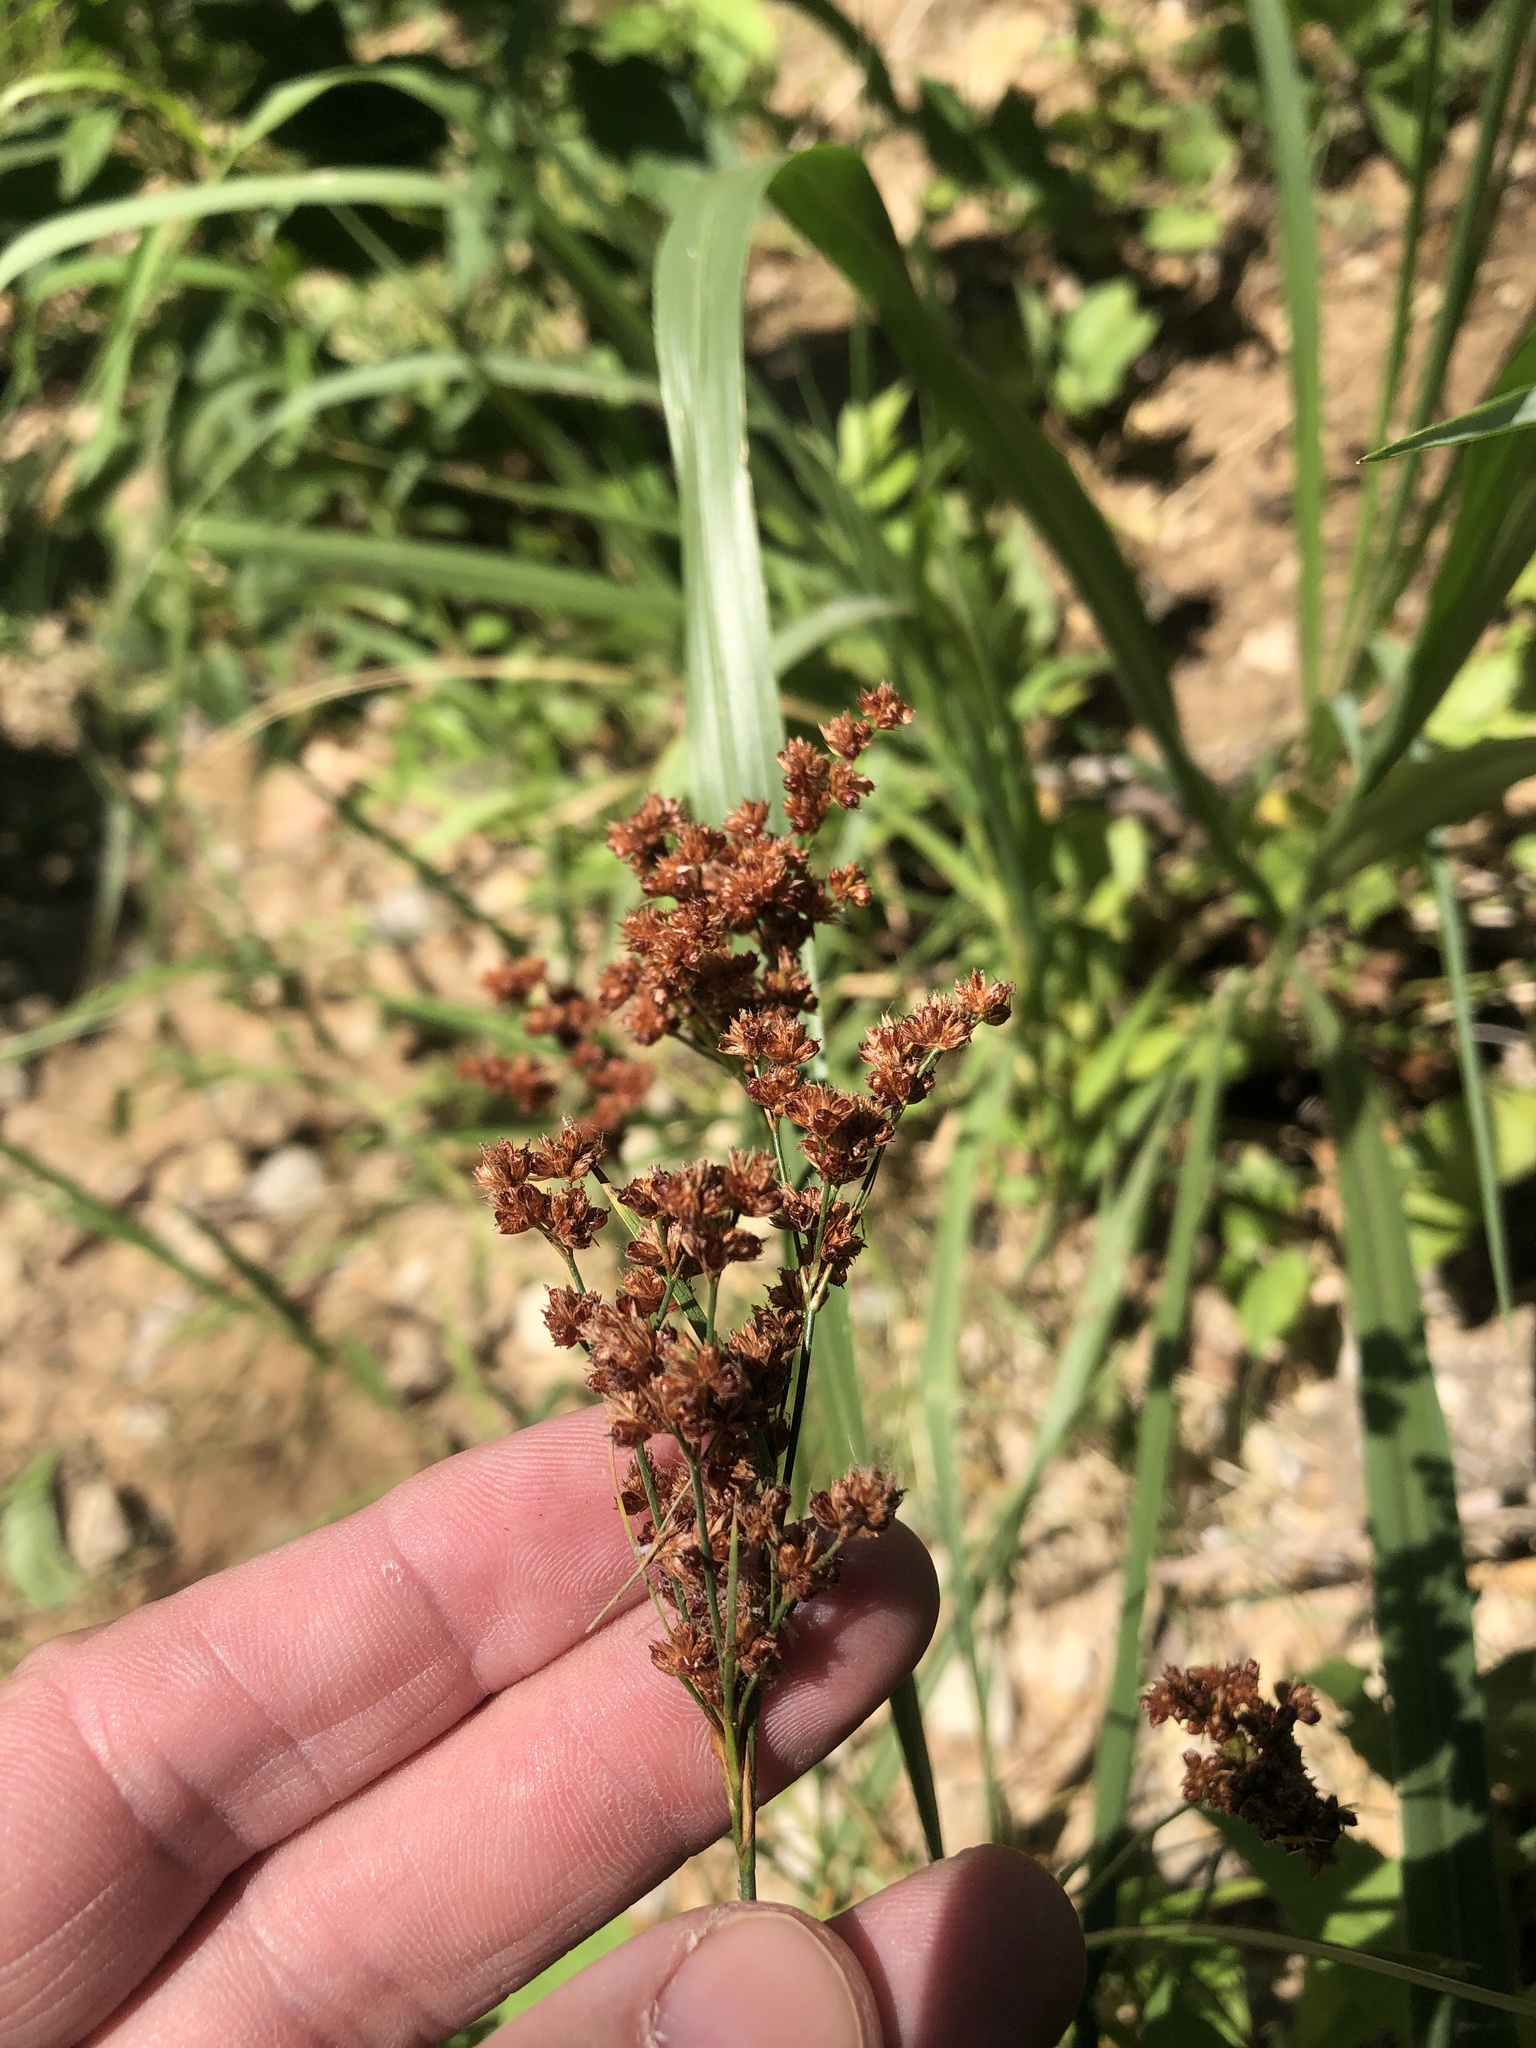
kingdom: Plantae
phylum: Tracheophyta
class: Liliopsida
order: Poales
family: Juncaceae
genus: Juncus
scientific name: Juncus marginatus
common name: Grass-leaf rush
